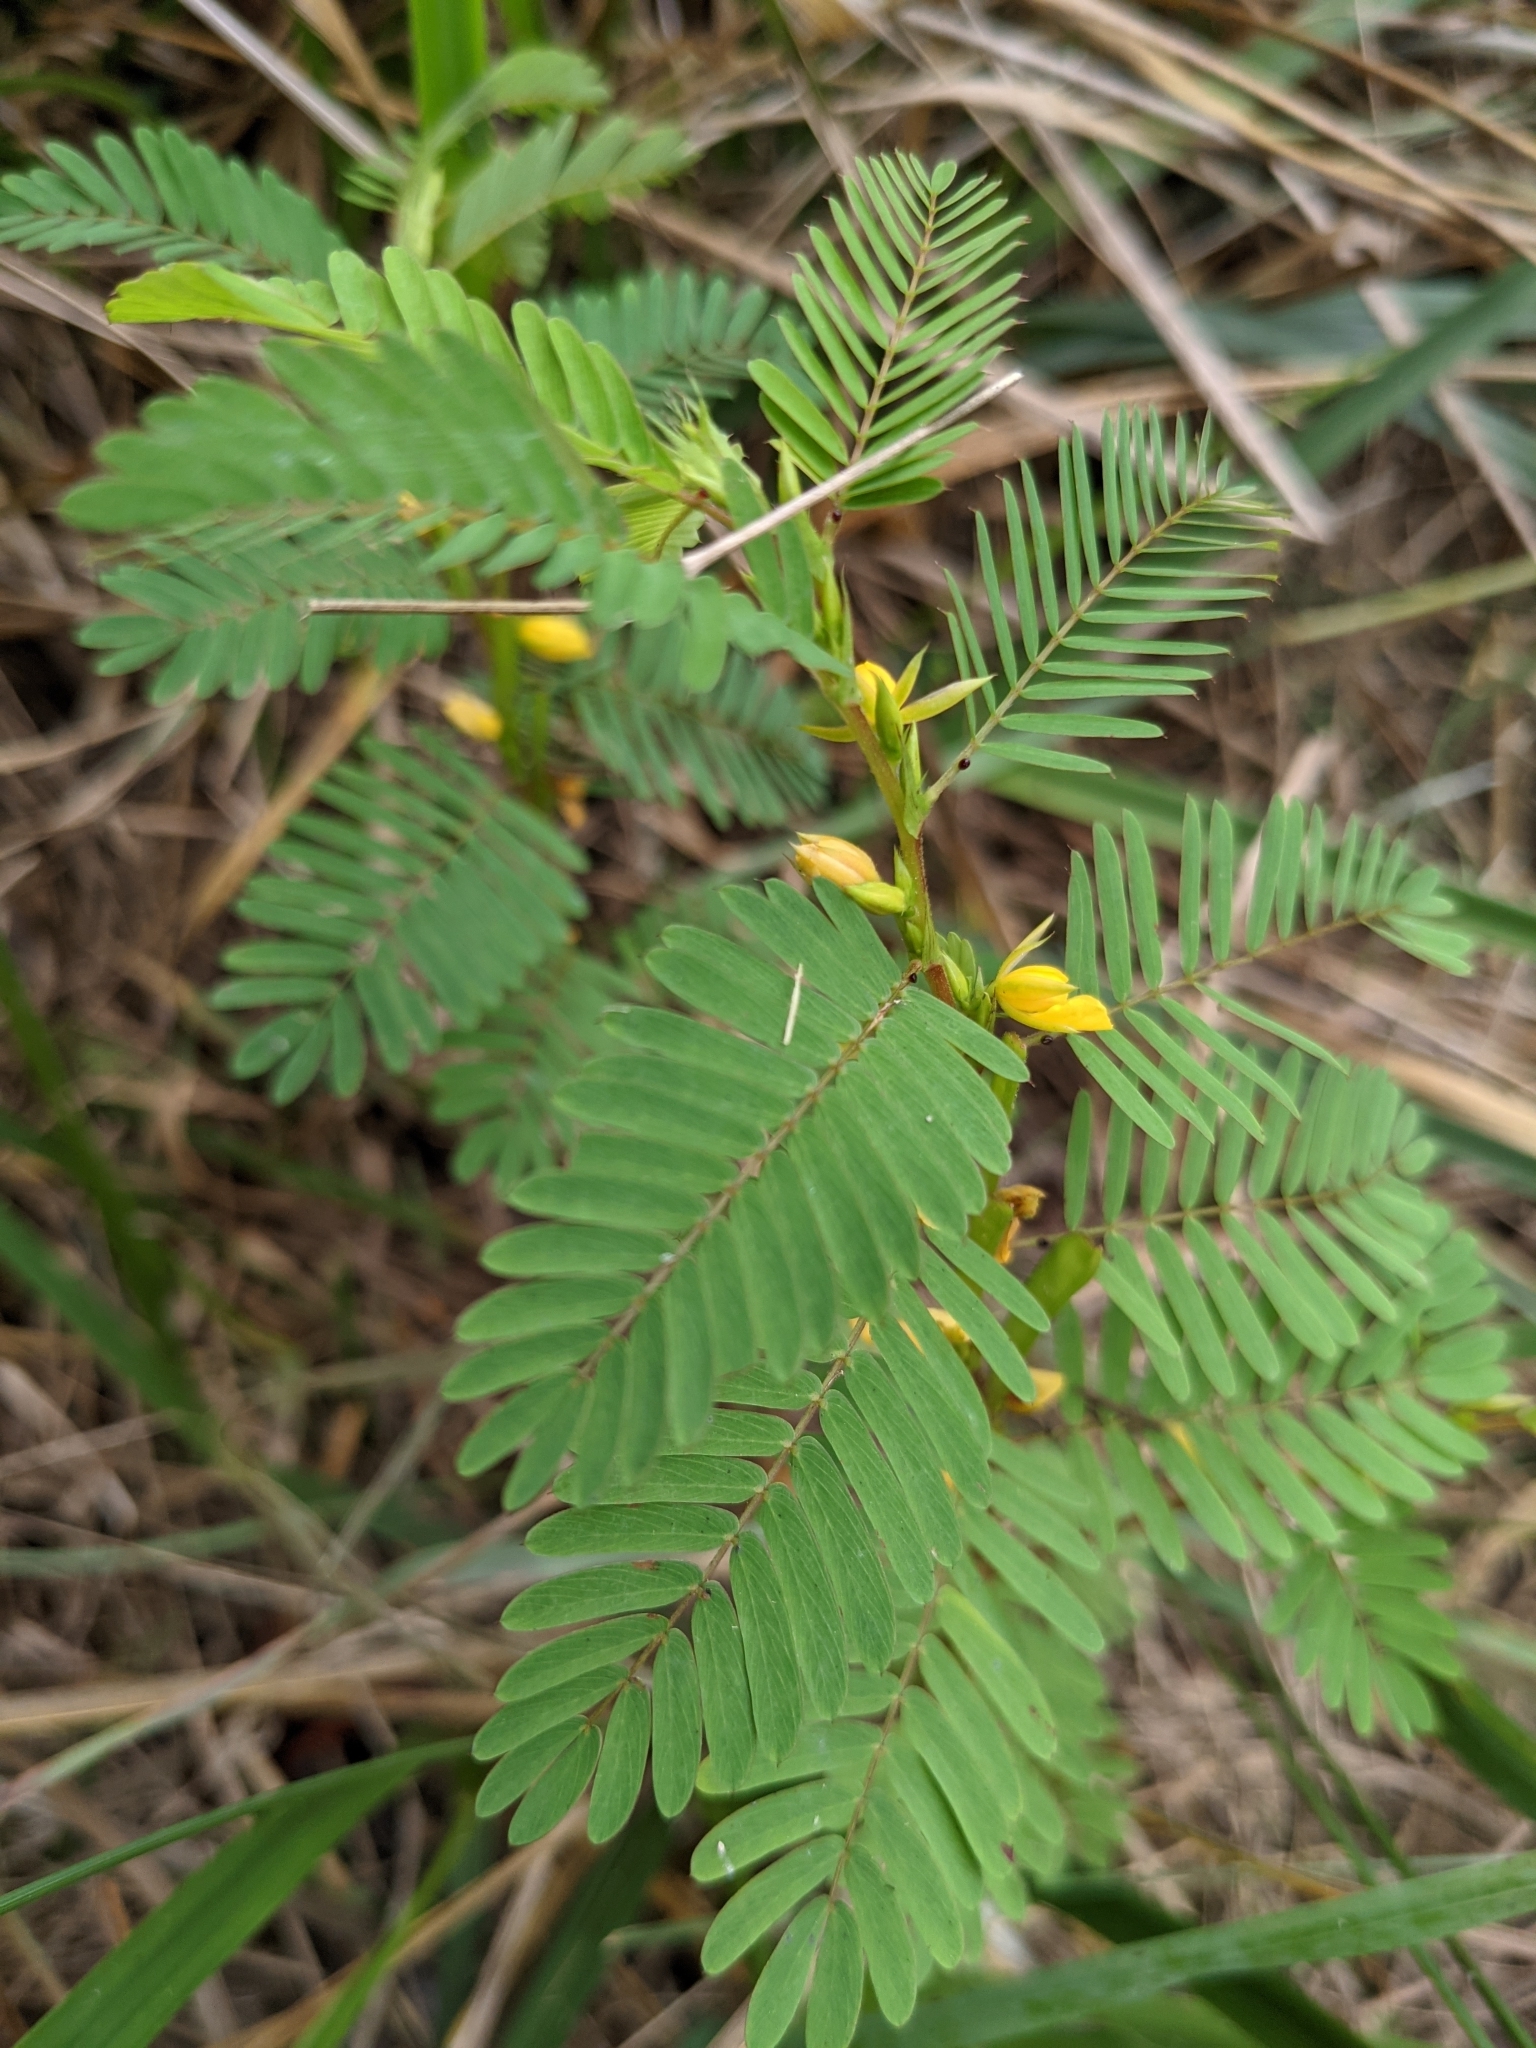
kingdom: Plantae
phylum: Tracheophyta
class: Magnoliopsida
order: Fabales
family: Fabaceae
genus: Chamaecrista
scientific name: Chamaecrista nictitans
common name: Sensitive cassia
